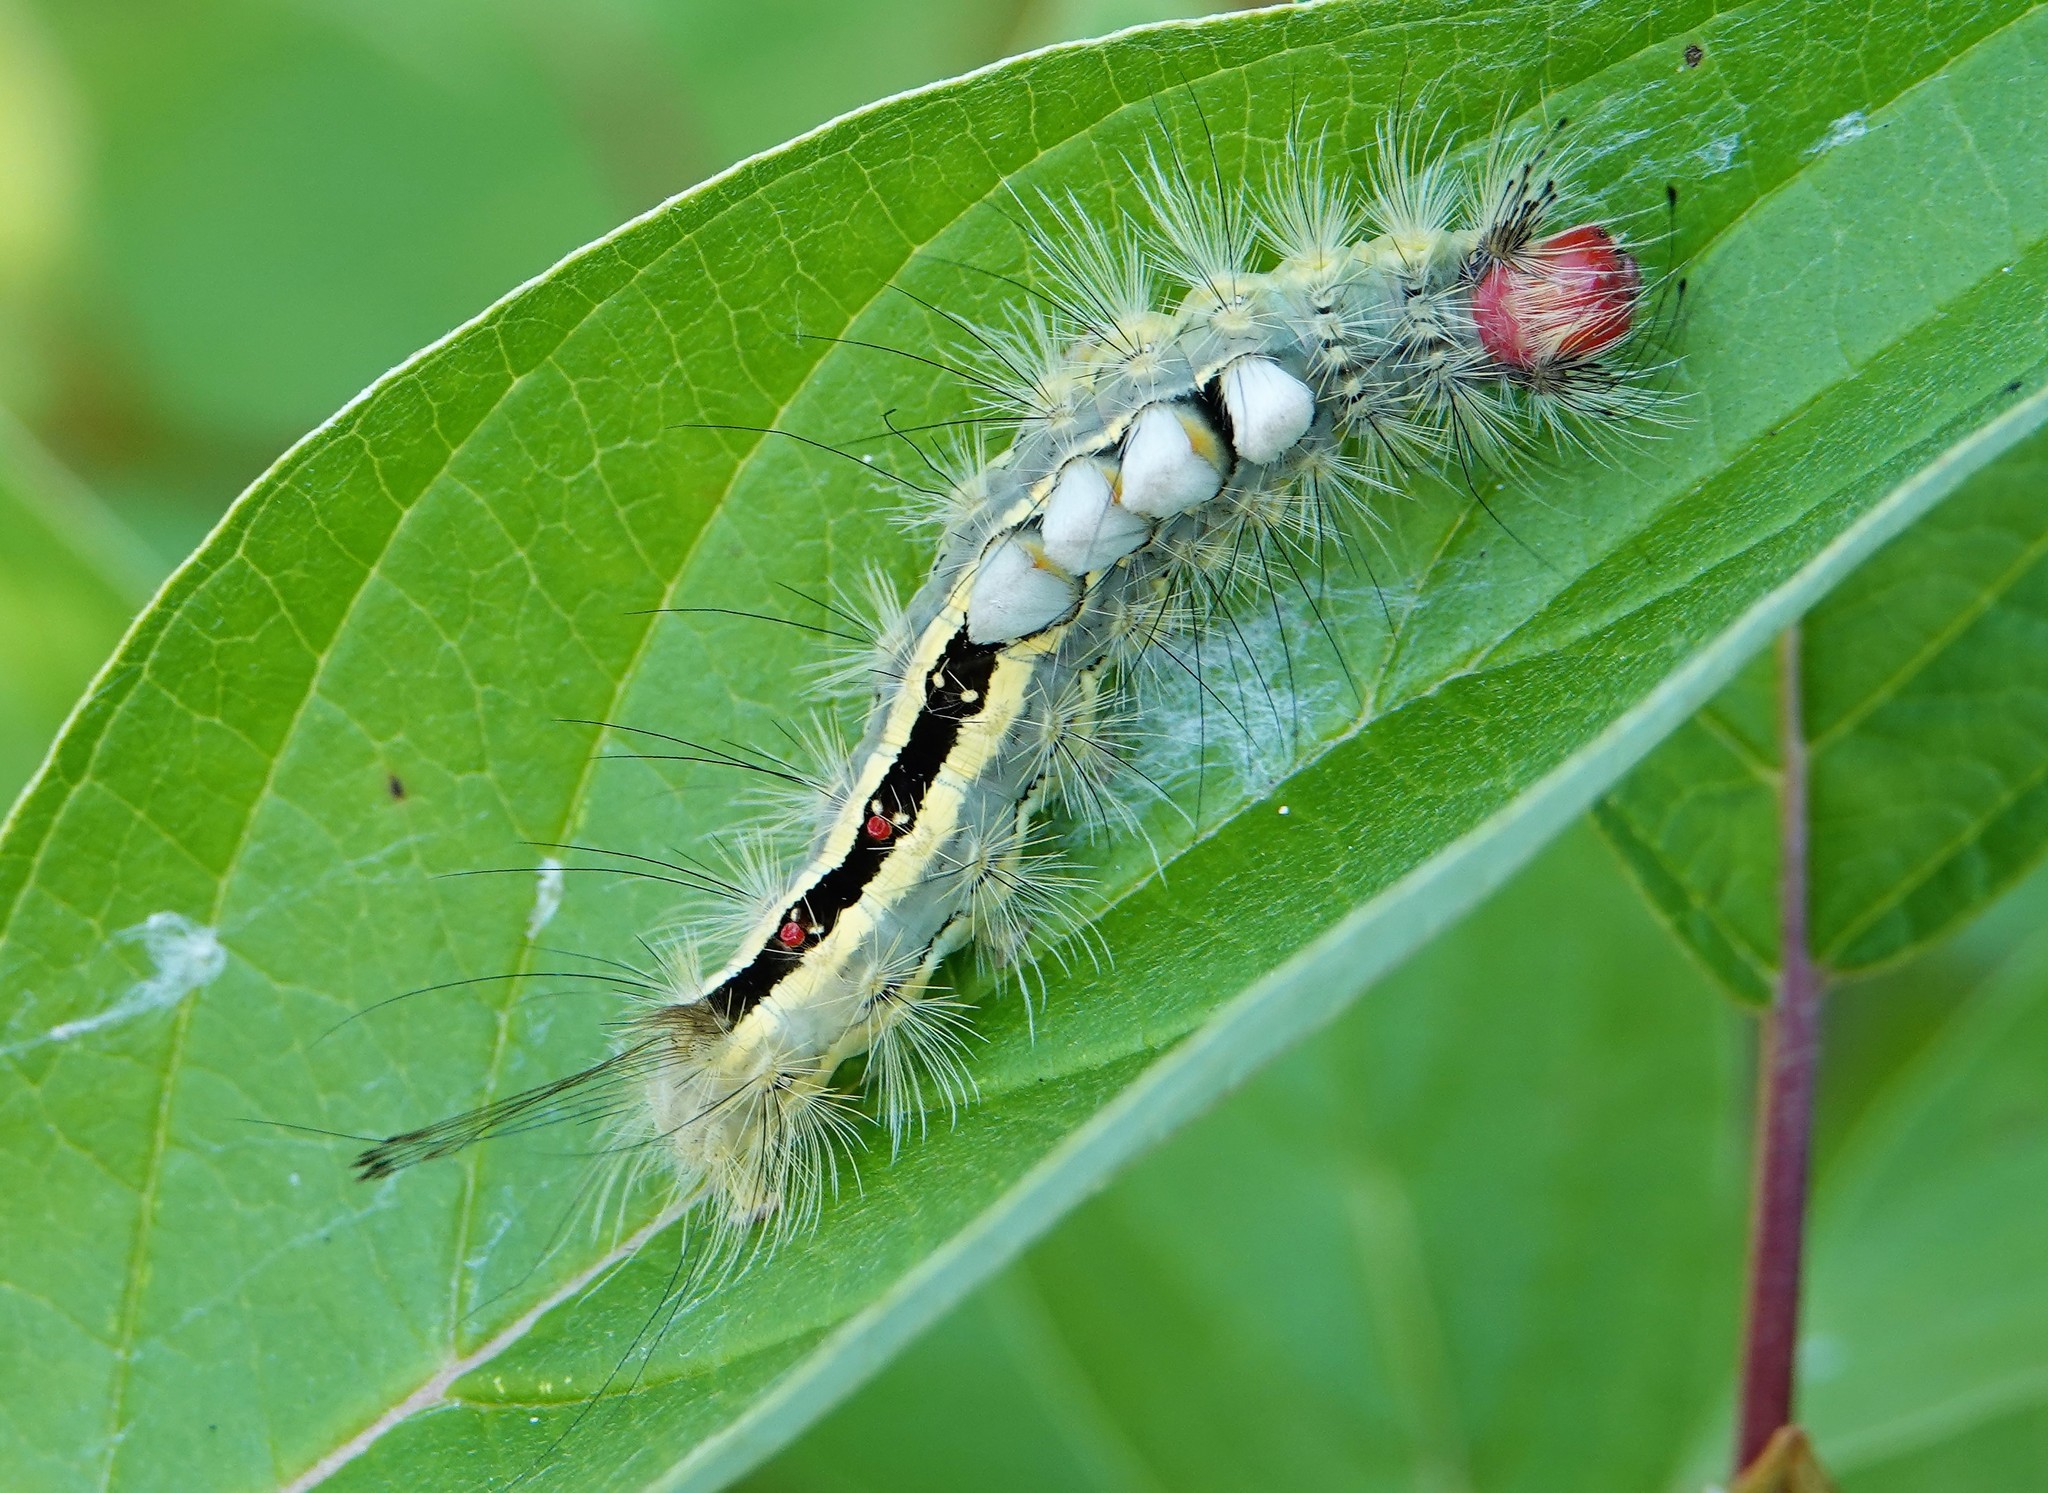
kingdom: Animalia
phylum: Arthropoda
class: Insecta
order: Lepidoptera
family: Erebidae
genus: Orgyia
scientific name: Orgyia leucostigma
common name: White-marked tussock moth
